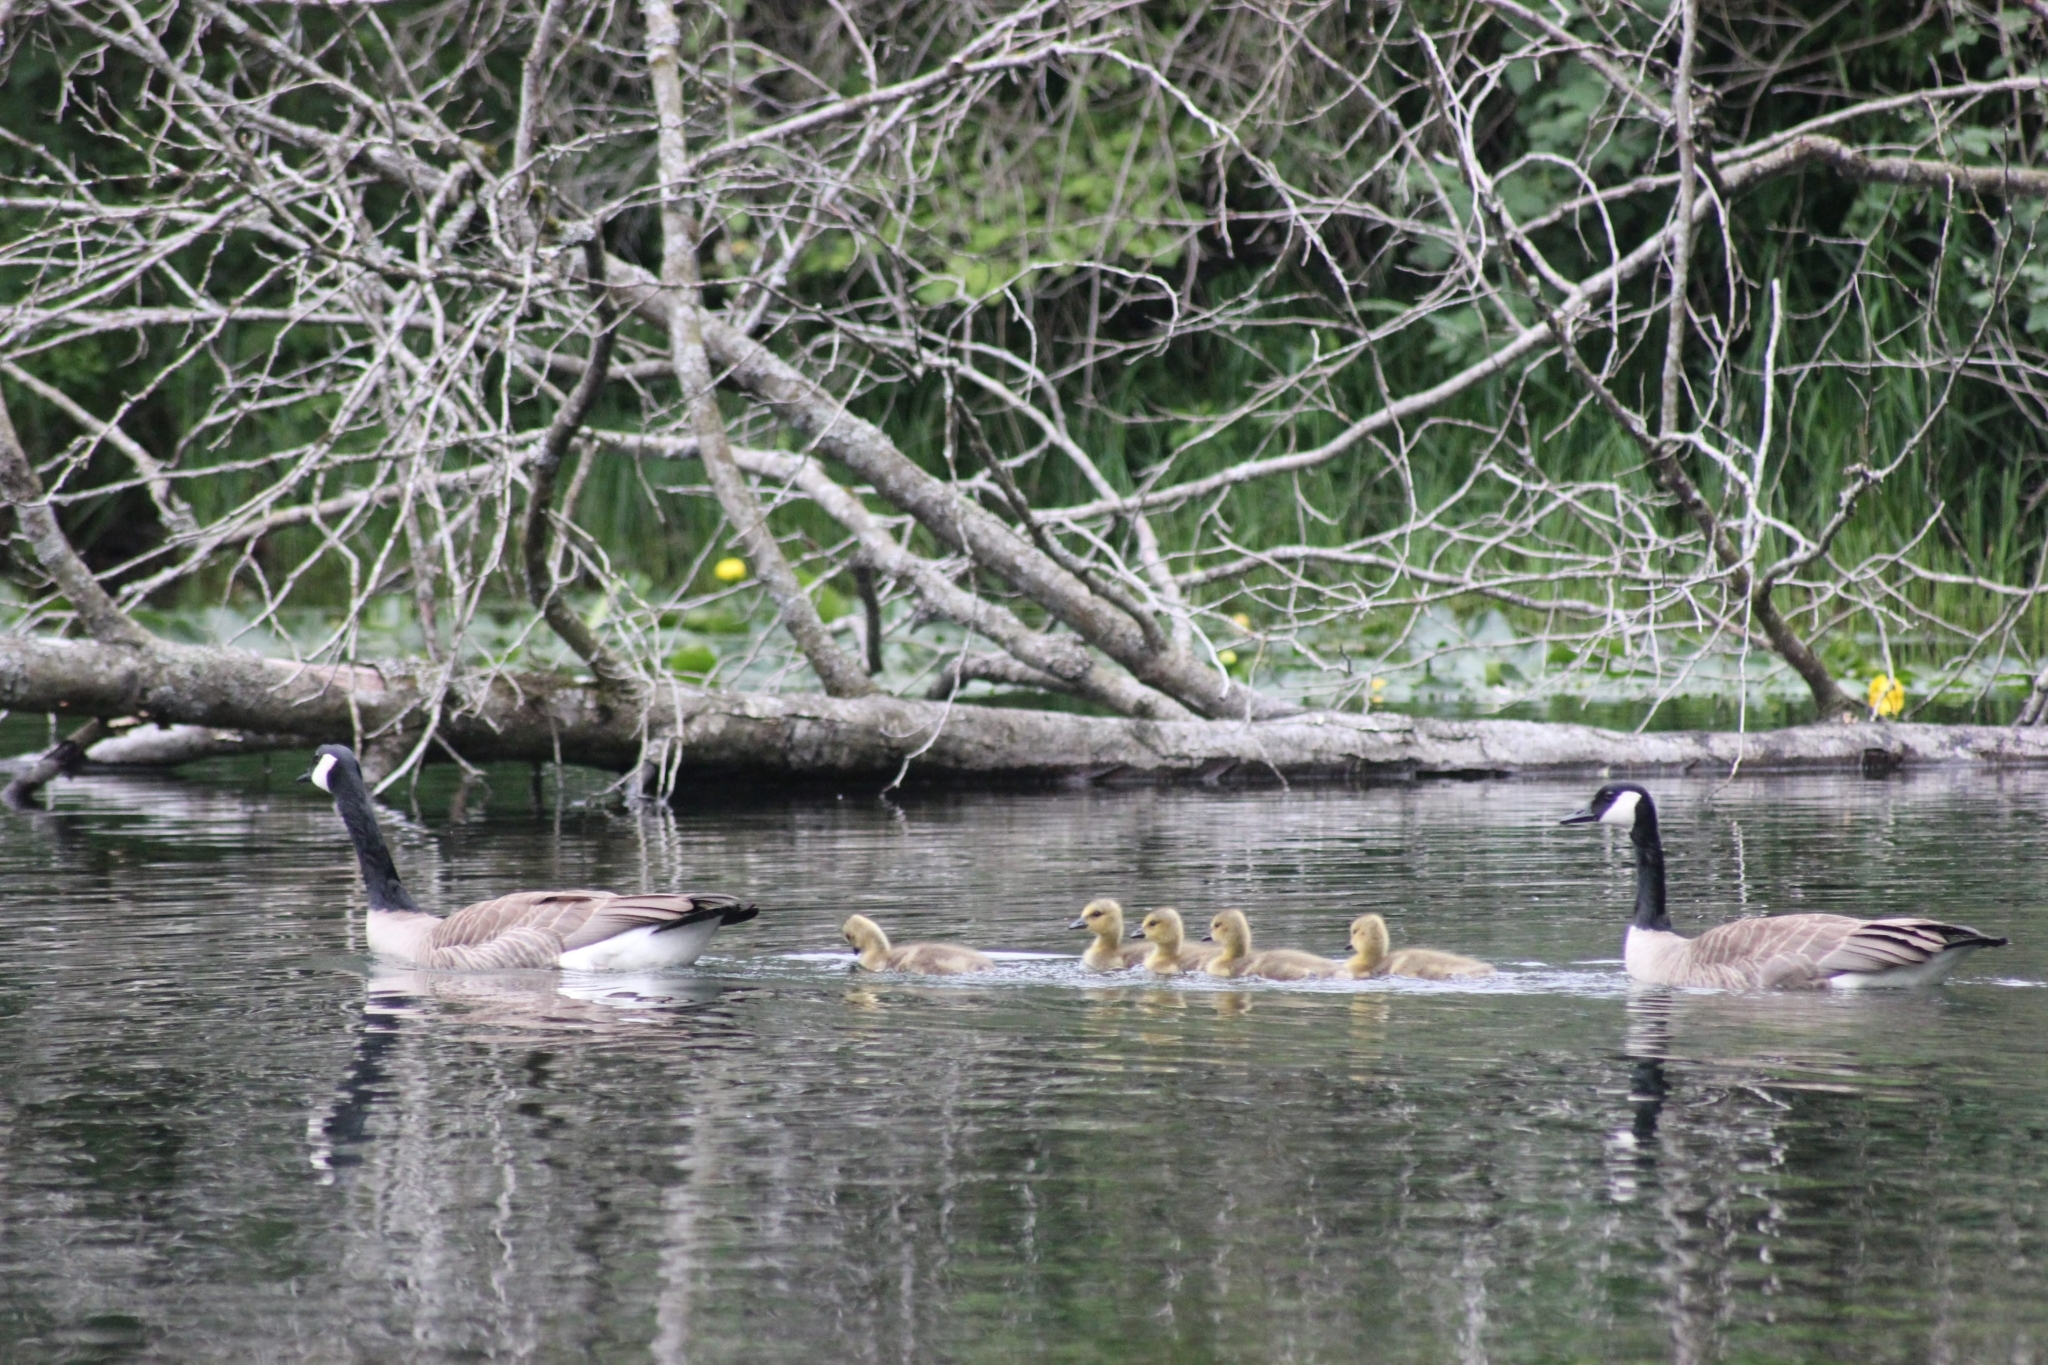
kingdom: Animalia
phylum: Chordata
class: Aves
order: Anseriformes
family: Anatidae
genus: Branta
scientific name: Branta canadensis
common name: Canada goose
